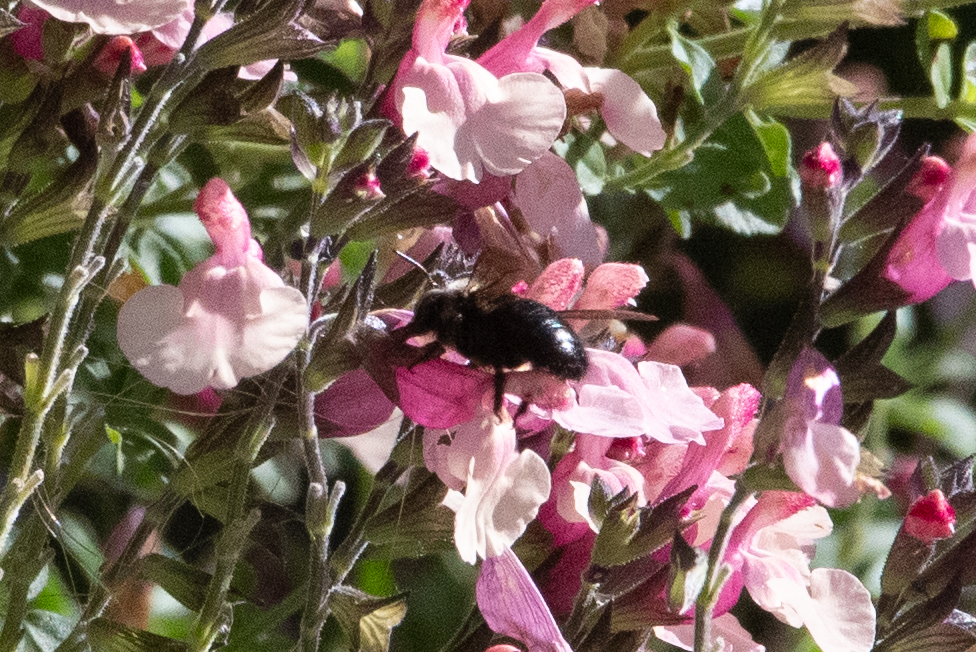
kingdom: Animalia
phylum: Arthropoda
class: Insecta
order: Hymenoptera
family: Apidae
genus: Xylocopa
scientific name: Xylocopa tabaniformis
